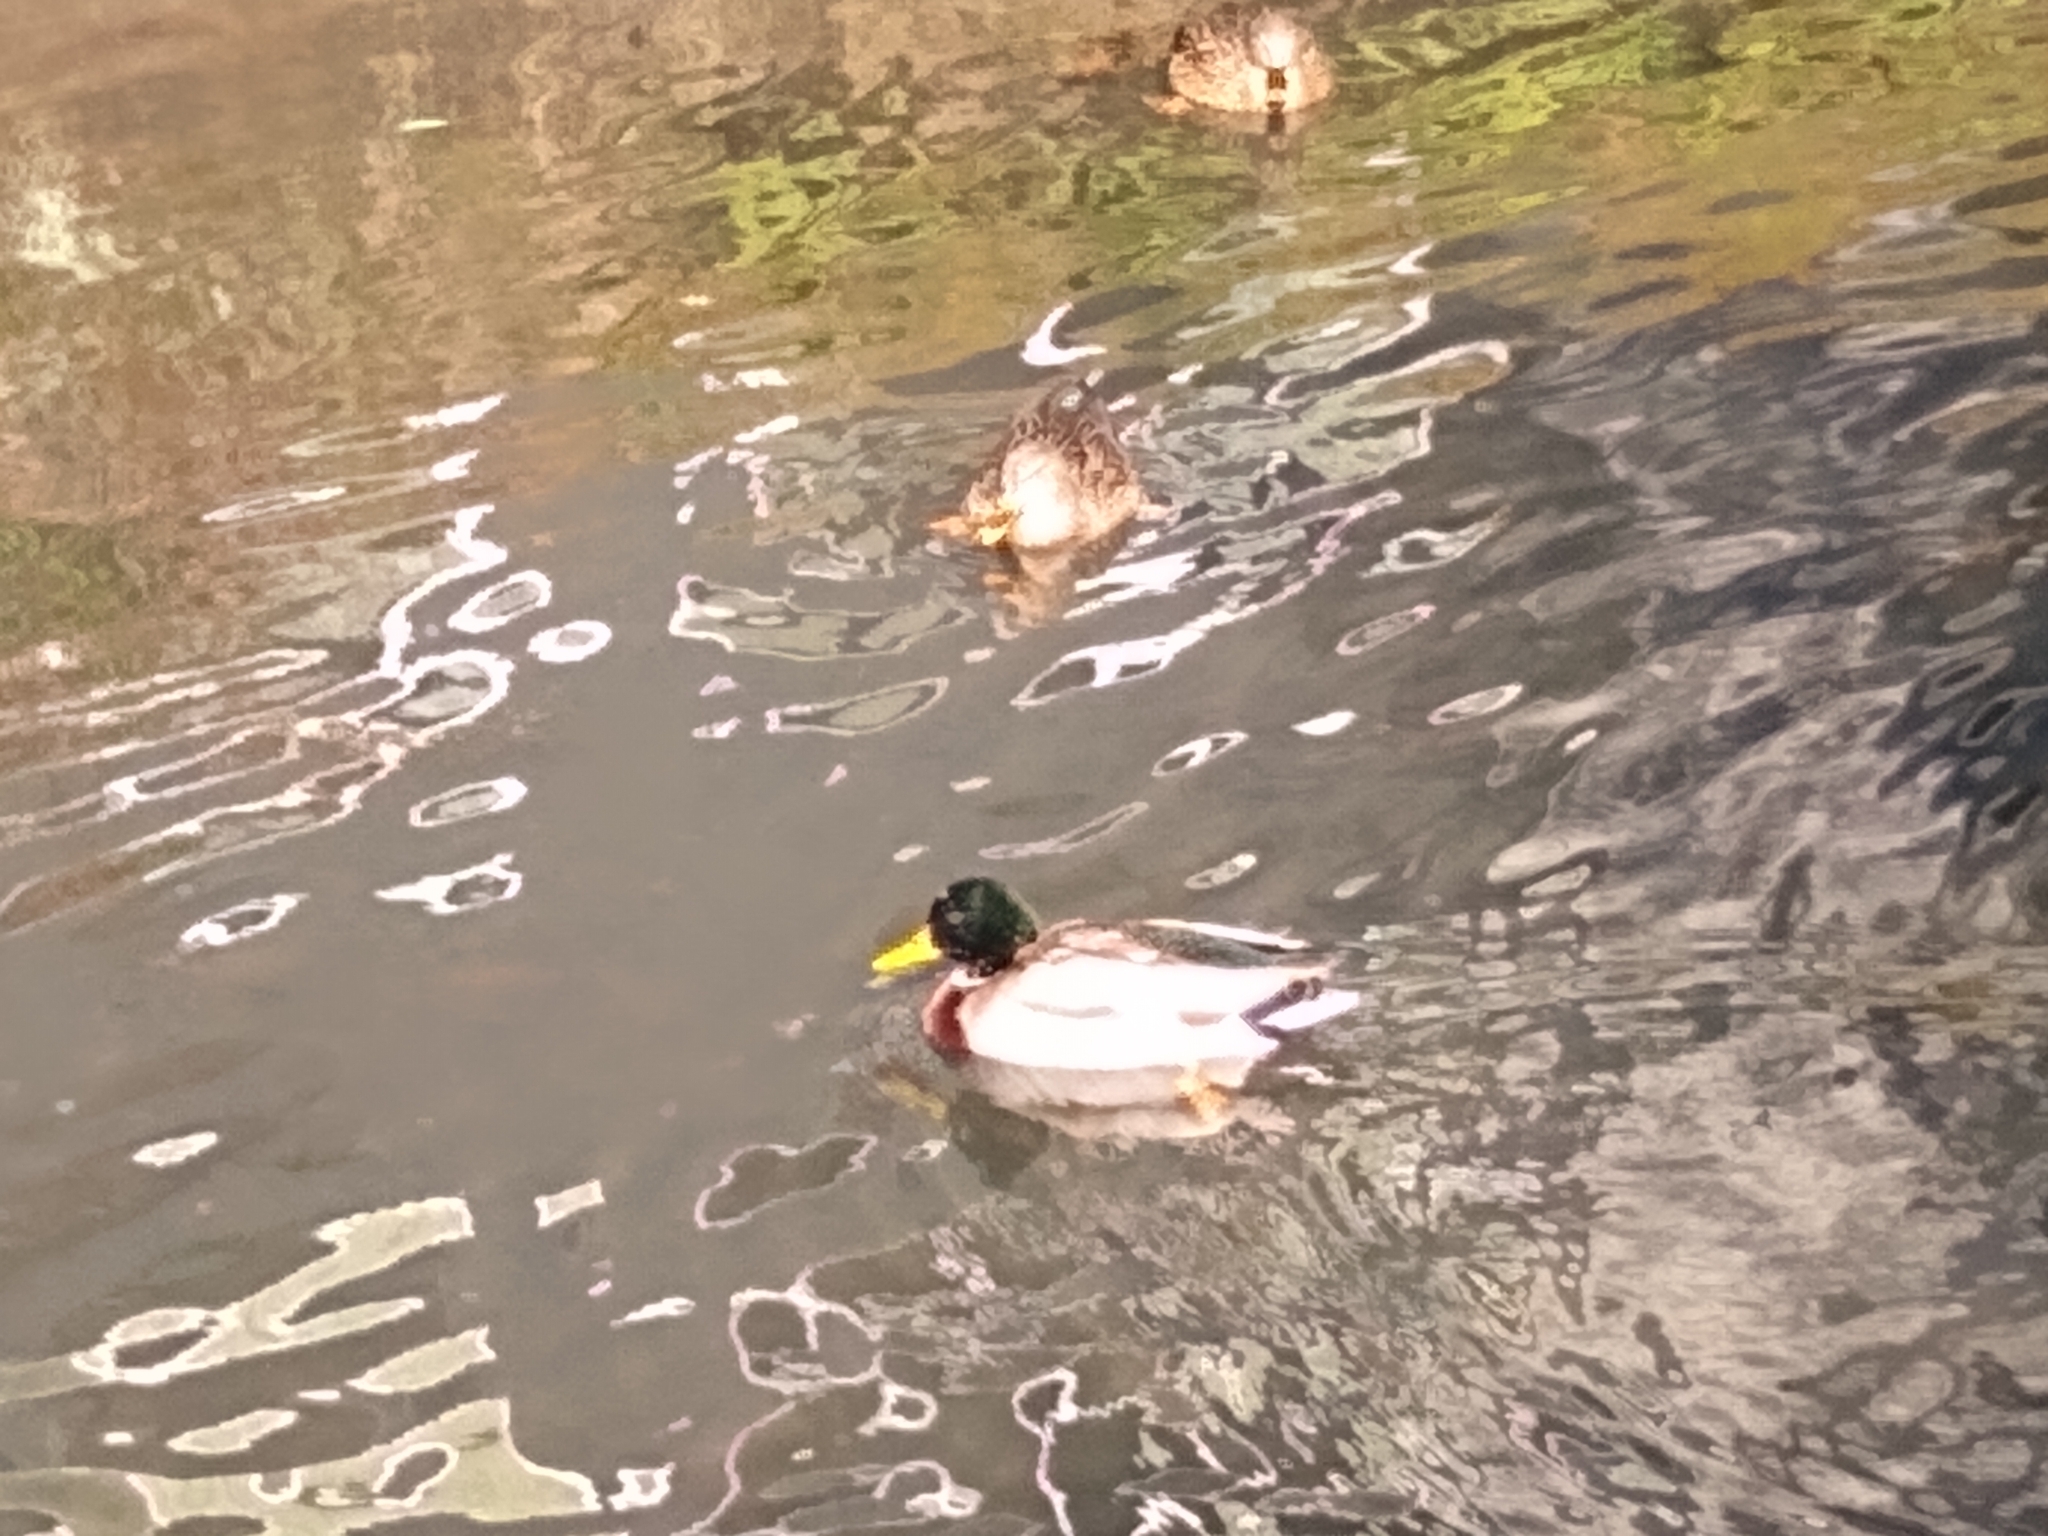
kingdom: Animalia
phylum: Chordata
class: Aves
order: Anseriformes
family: Anatidae
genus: Anas
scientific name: Anas platyrhynchos
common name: Mallard
